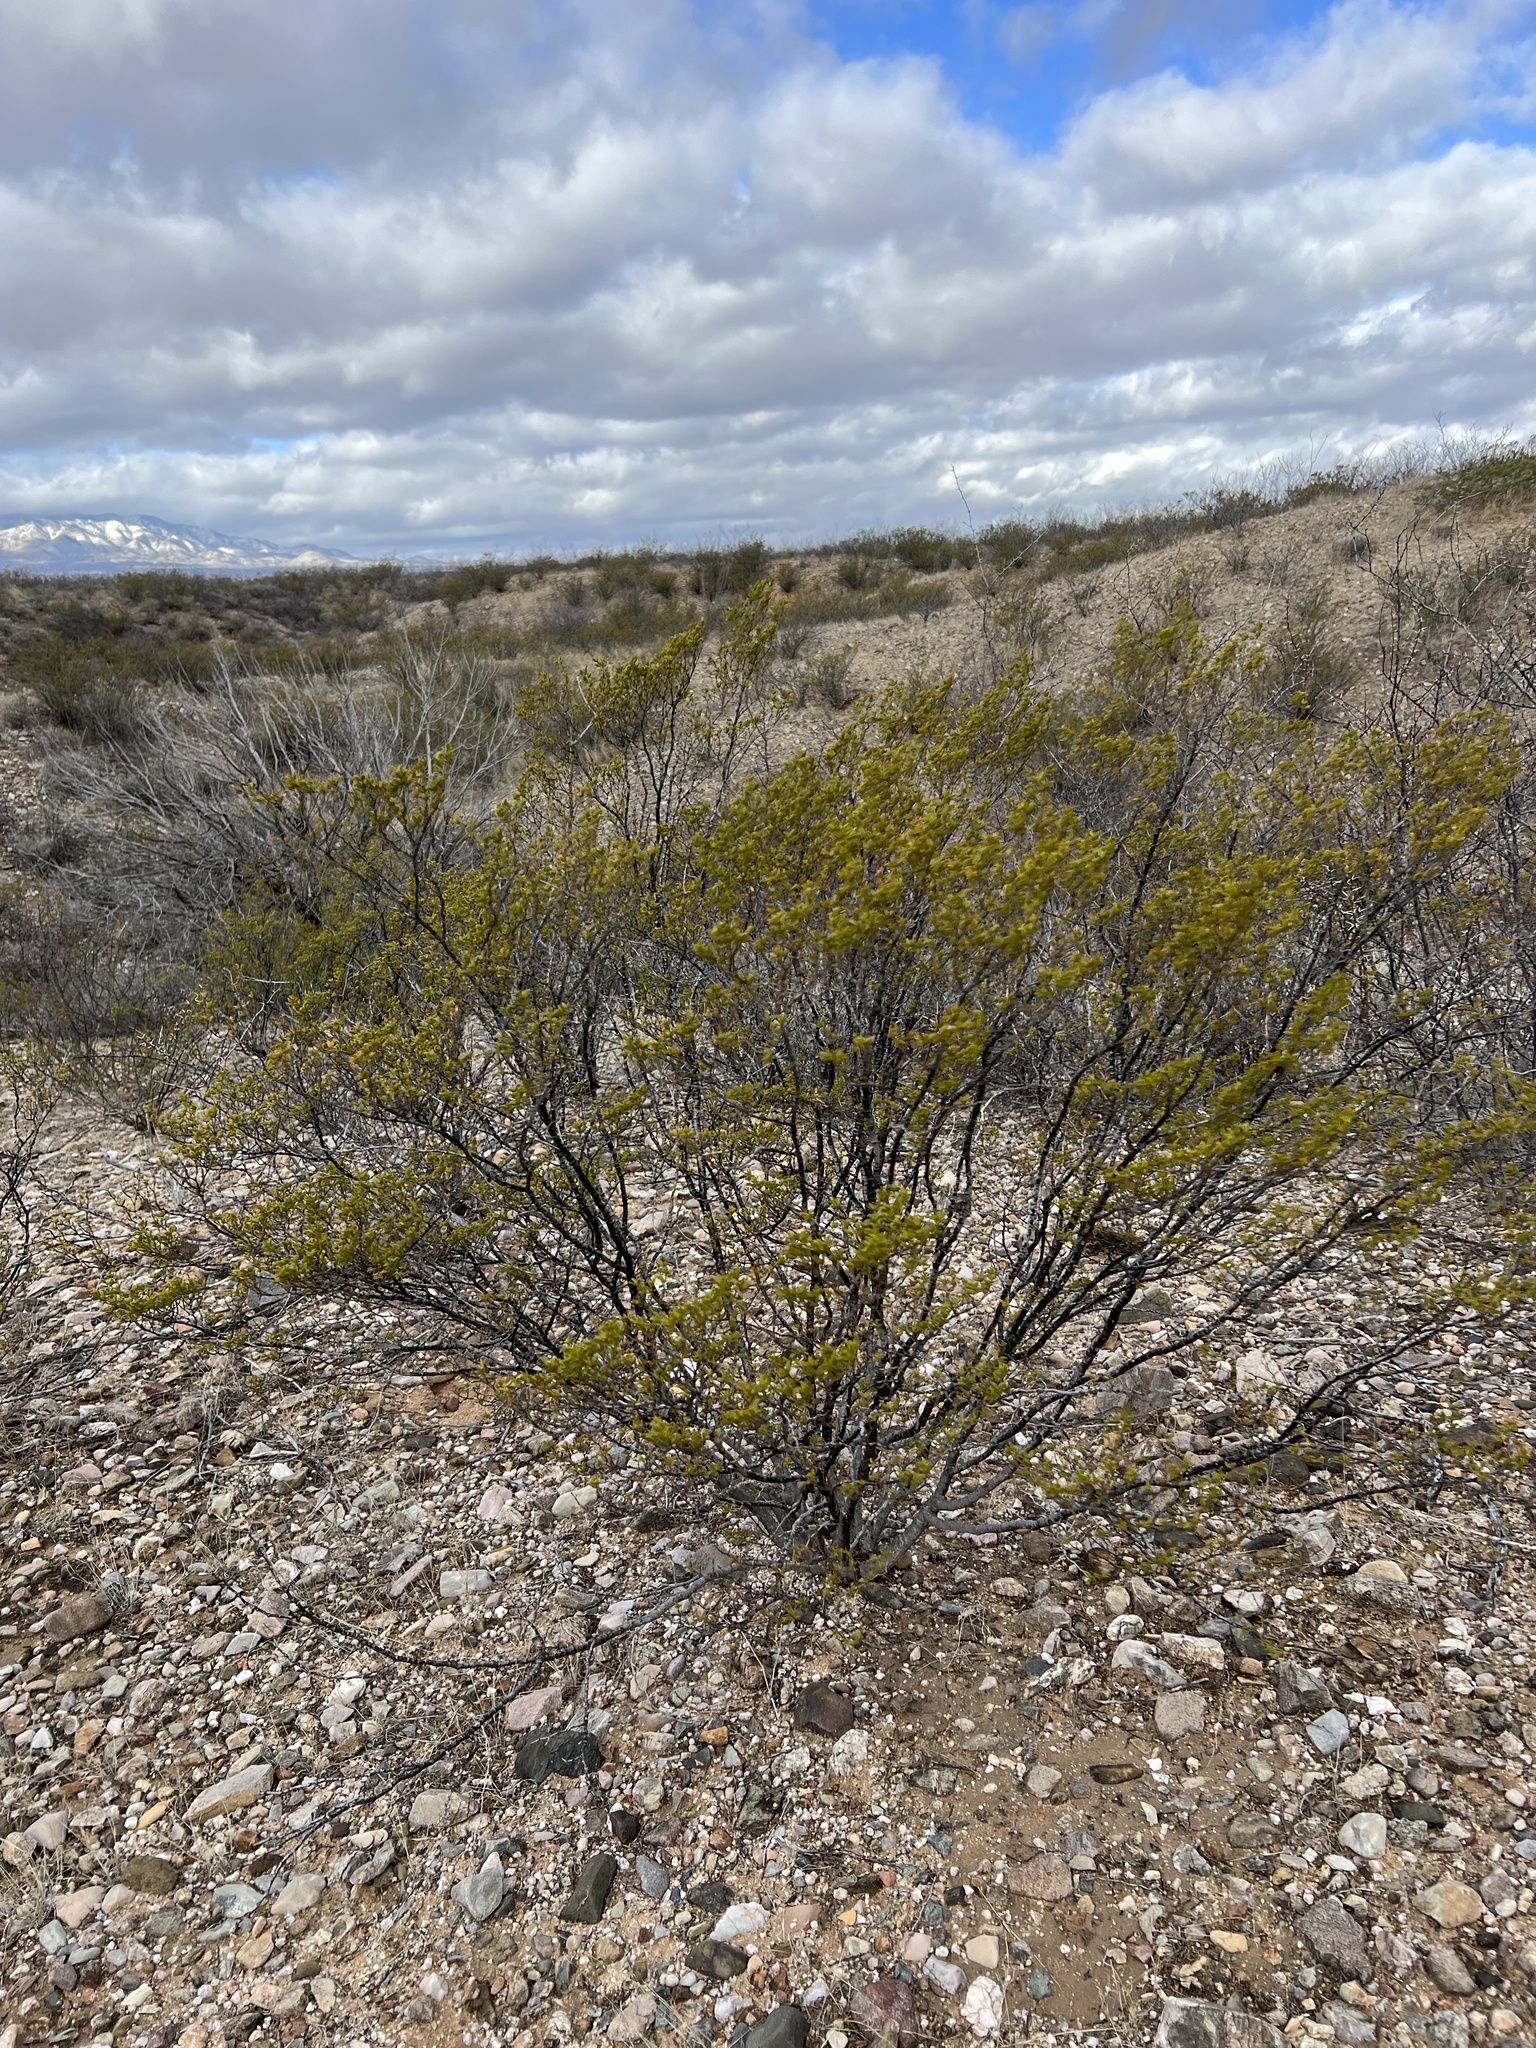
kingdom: Plantae
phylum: Tracheophyta
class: Magnoliopsida
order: Zygophyllales
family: Zygophyllaceae
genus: Larrea
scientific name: Larrea tridentata
